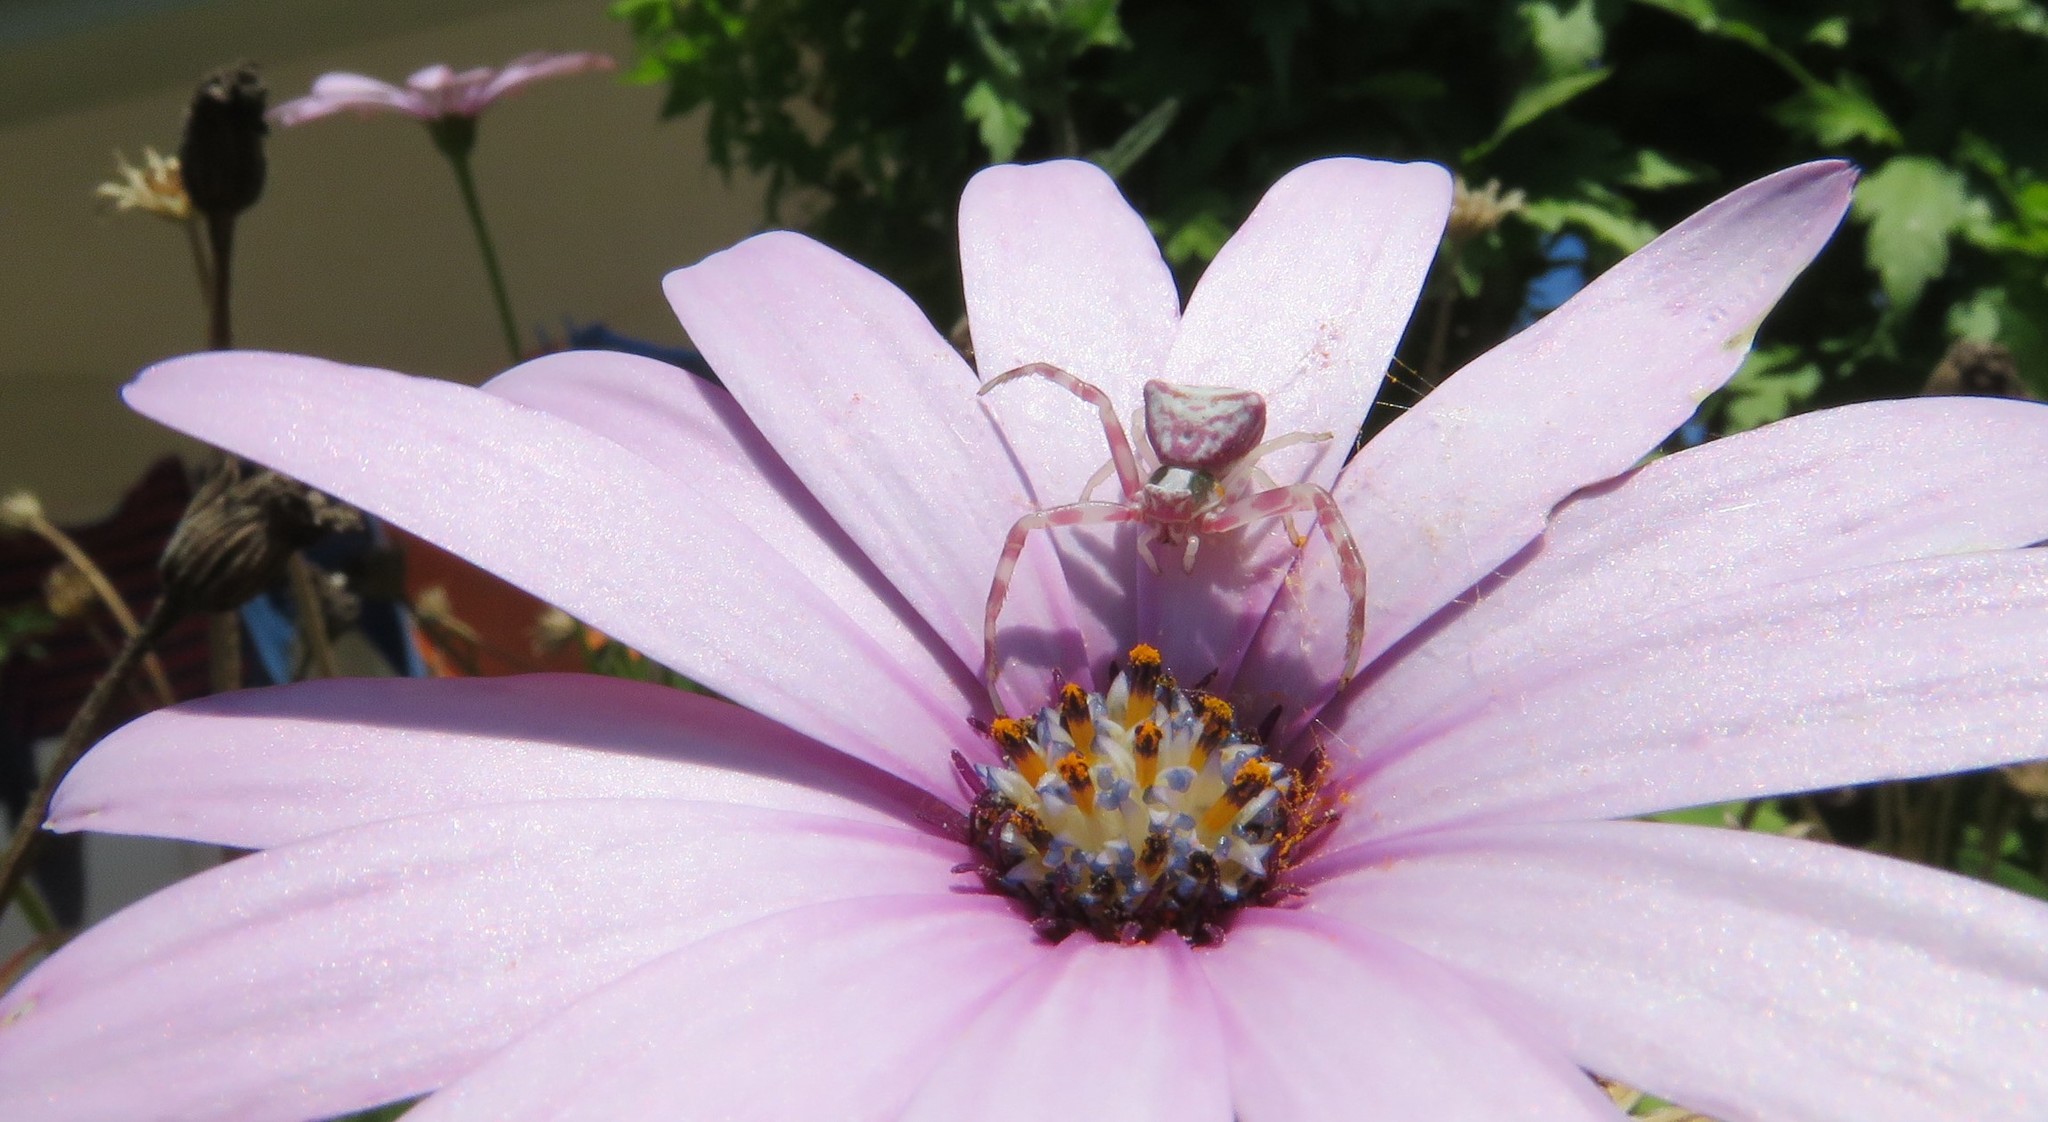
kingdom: Animalia
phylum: Arthropoda
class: Arachnida
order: Araneae
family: Thomisidae
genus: Thomisus
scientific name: Thomisus onustus
